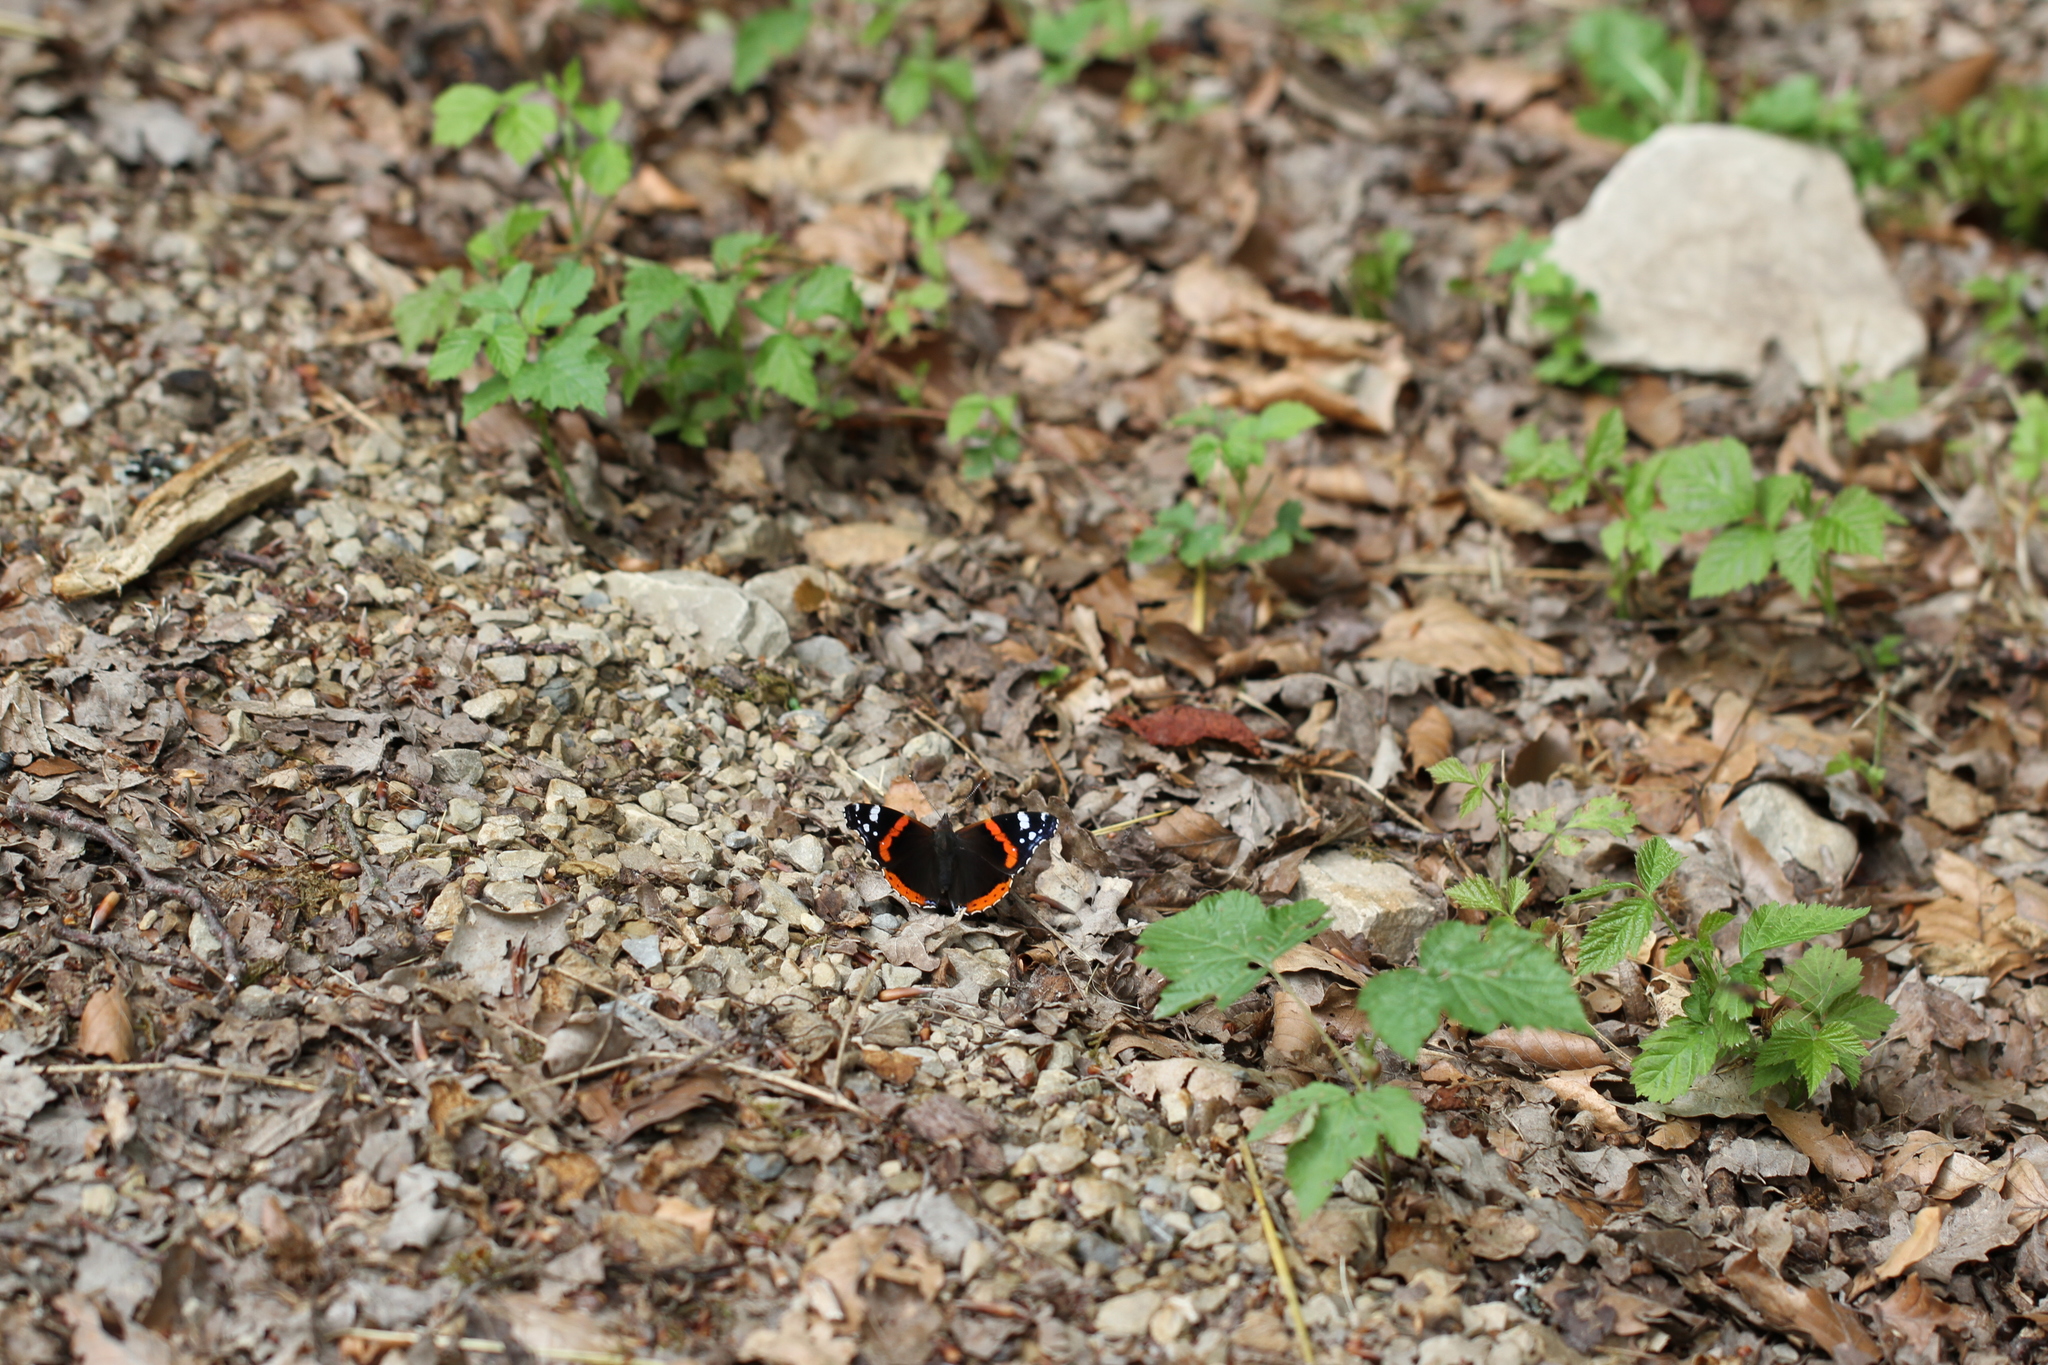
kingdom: Animalia
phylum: Arthropoda
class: Insecta
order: Lepidoptera
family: Nymphalidae
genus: Vanessa
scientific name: Vanessa atalanta
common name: Red admiral
